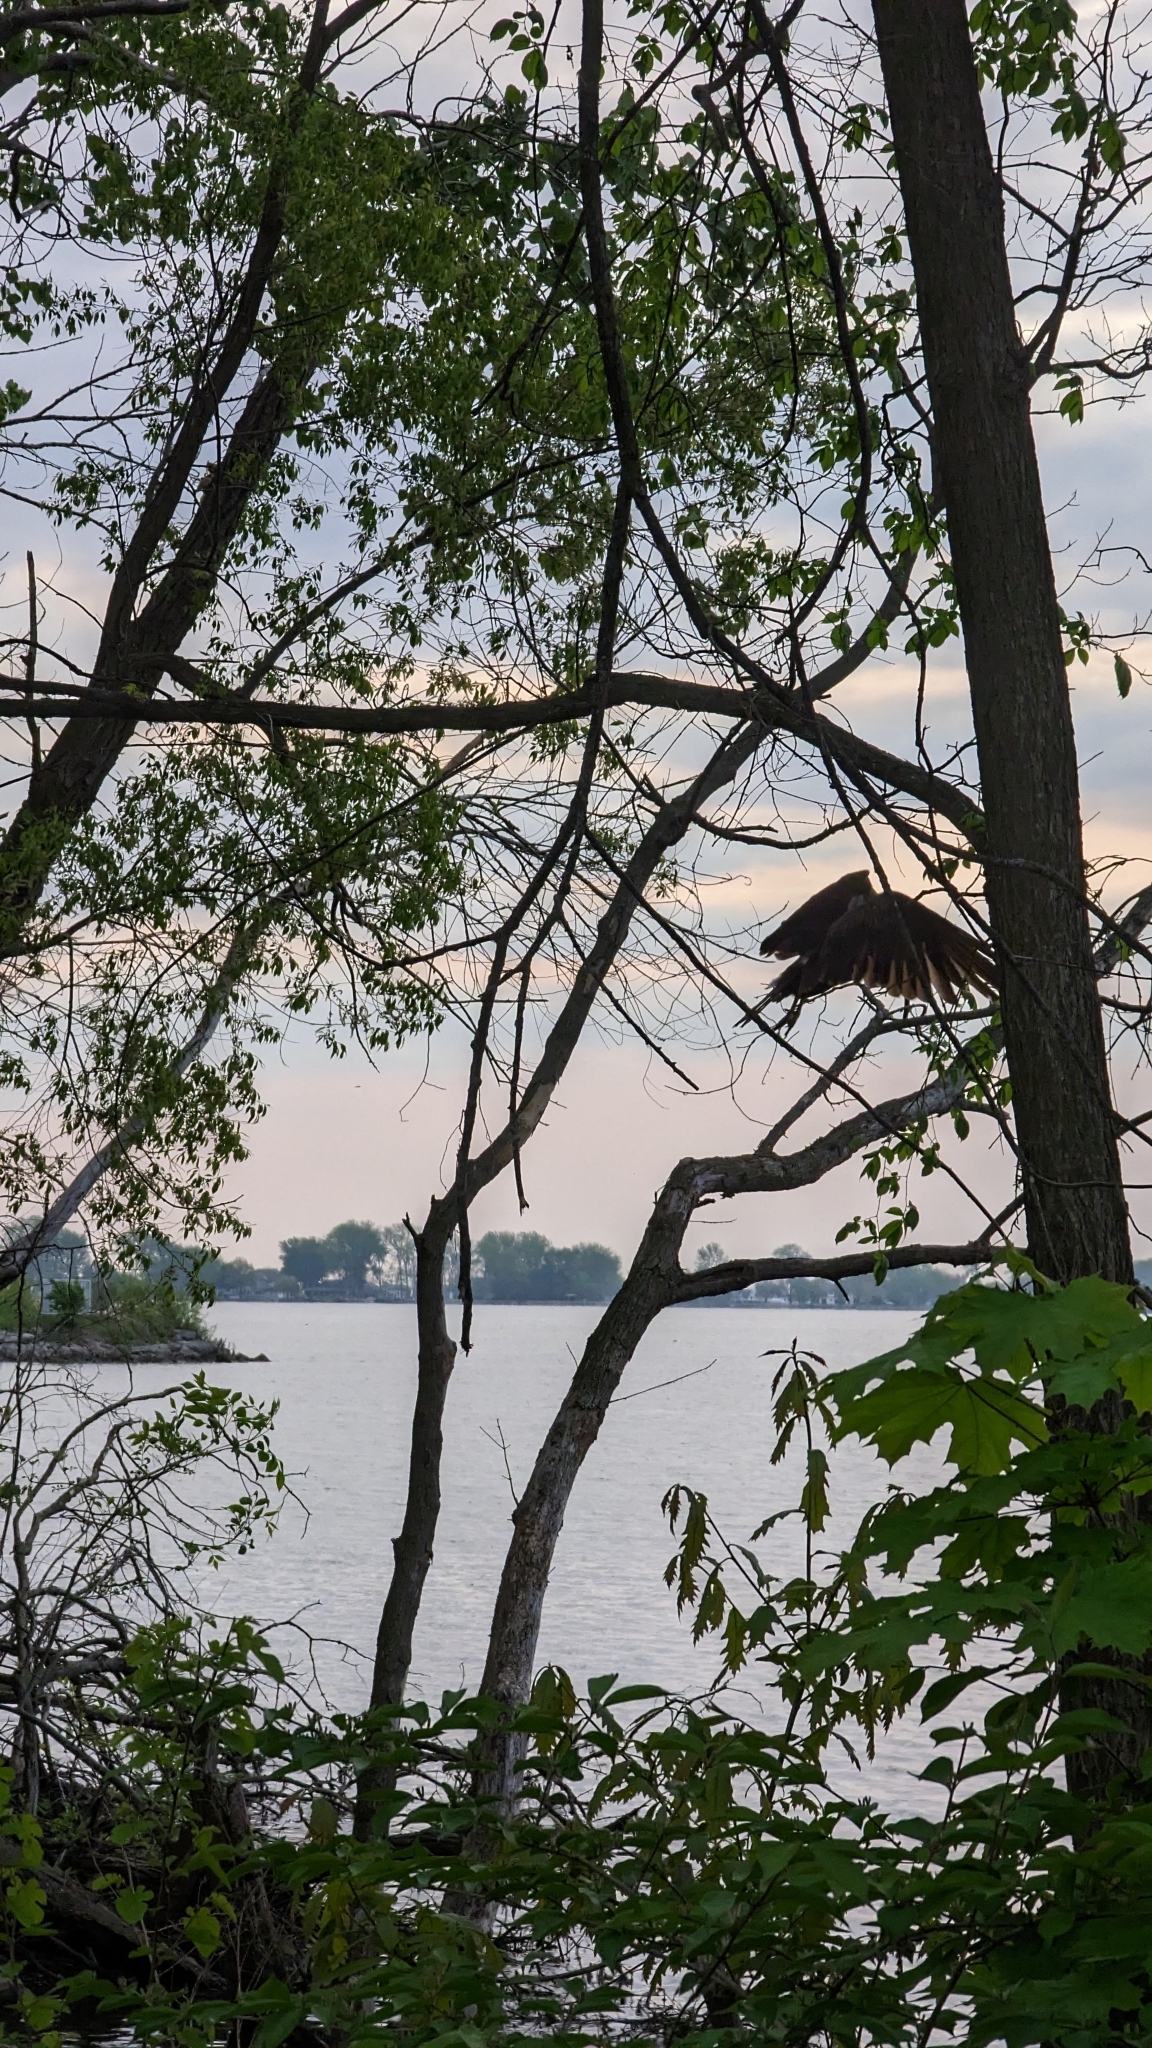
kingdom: Animalia
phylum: Chordata
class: Aves
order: Accipitriformes
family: Cathartidae
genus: Cathartes
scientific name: Cathartes aura
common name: Turkey vulture
